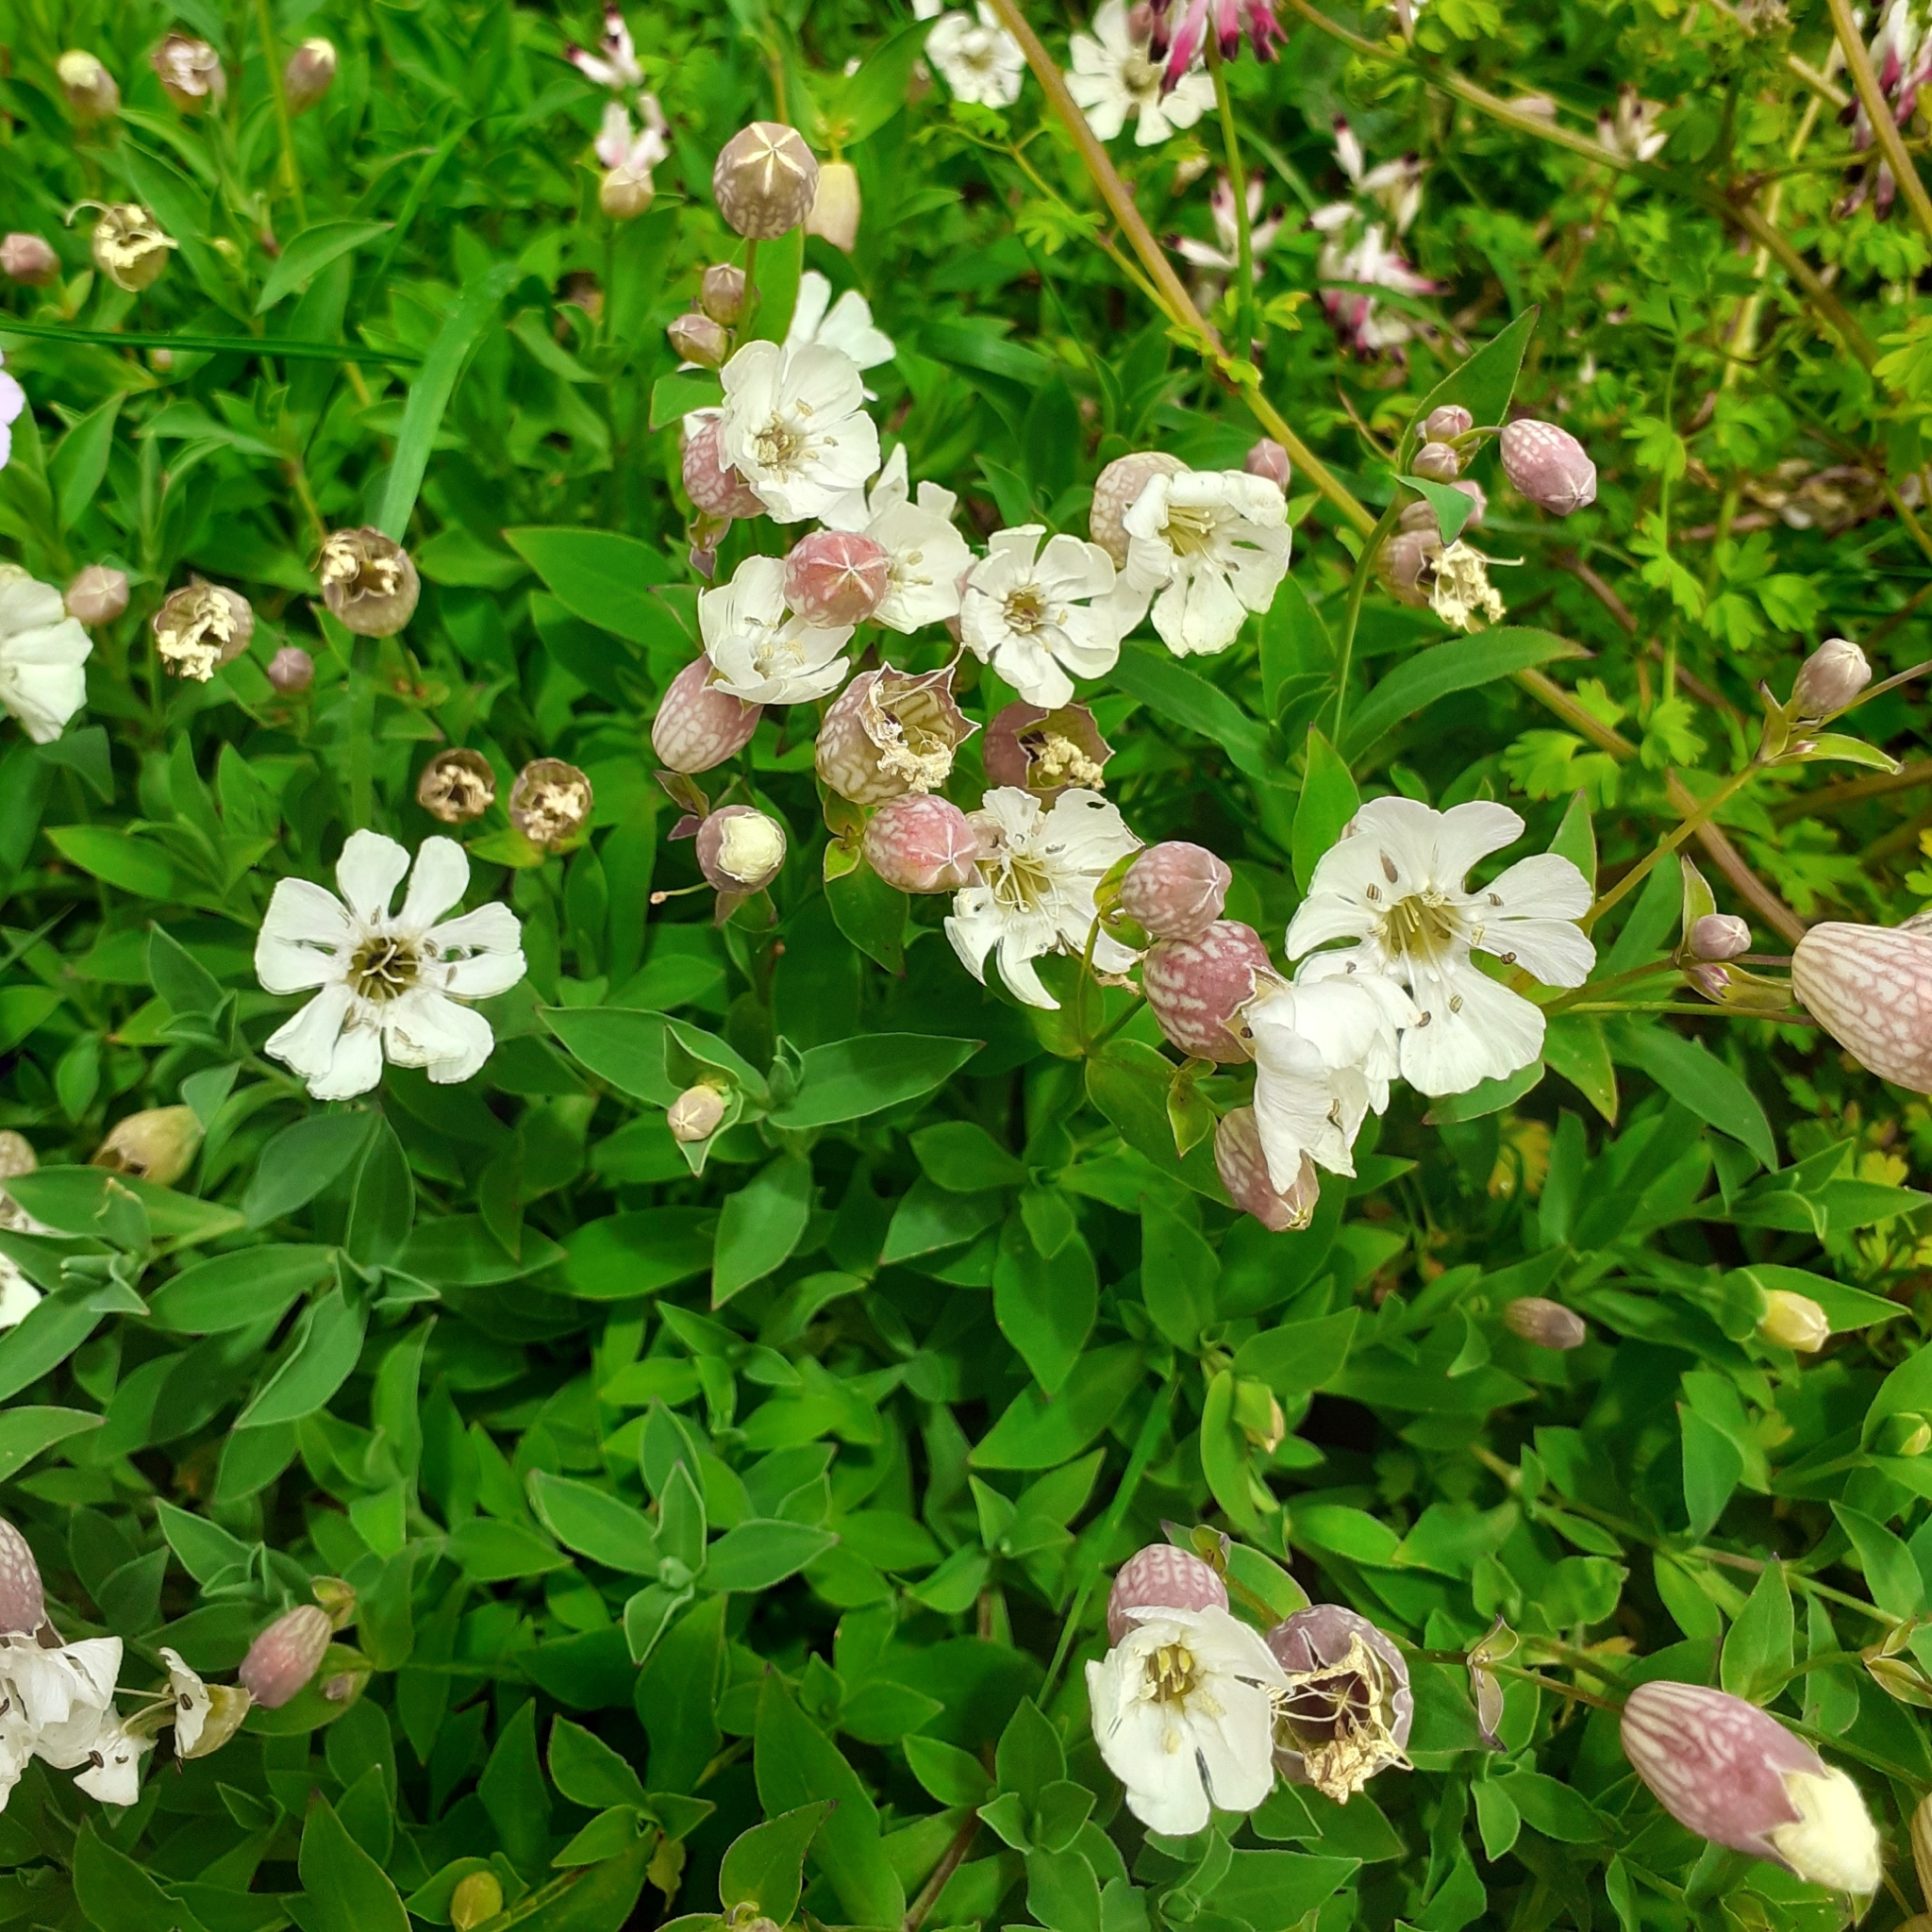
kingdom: Plantae
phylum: Tracheophyta
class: Magnoliopsida
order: Caryophyllales
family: Caryophyllaceae
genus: Silene
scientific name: Silene uniflora
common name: Sea campion
